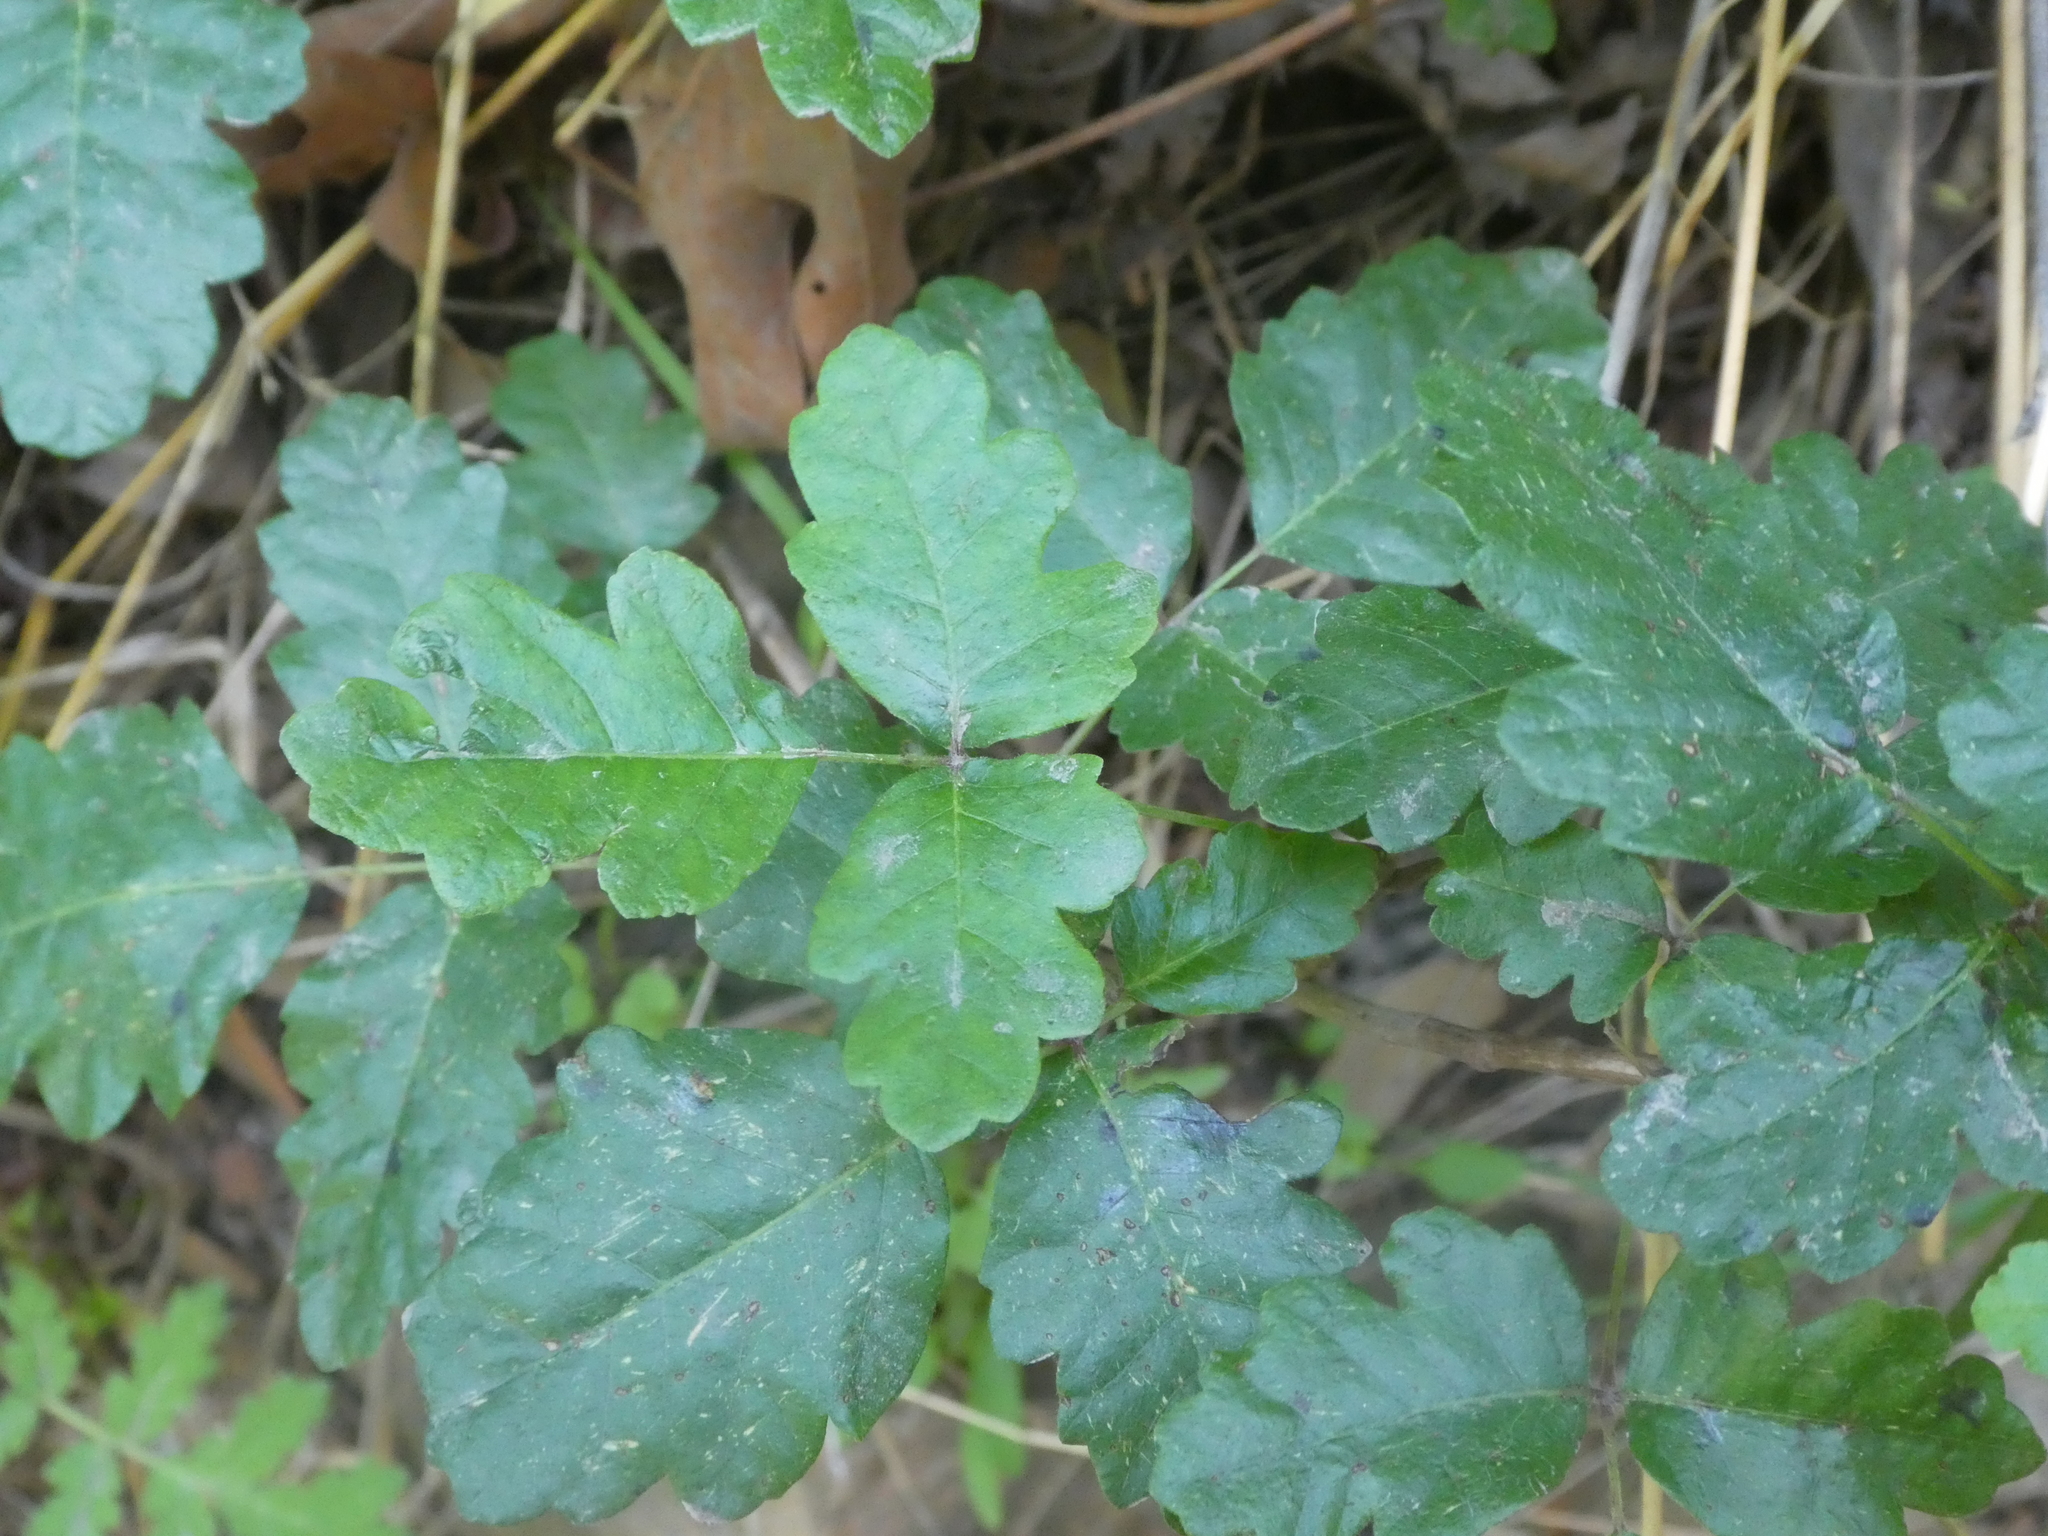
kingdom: Plantae
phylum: Tracheophyta
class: Magnoliopsida
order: Sapindales
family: Anacardiaceae
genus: Toxicodendron
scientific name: Toxicodendron diversilobum
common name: Pacific poison-oak
